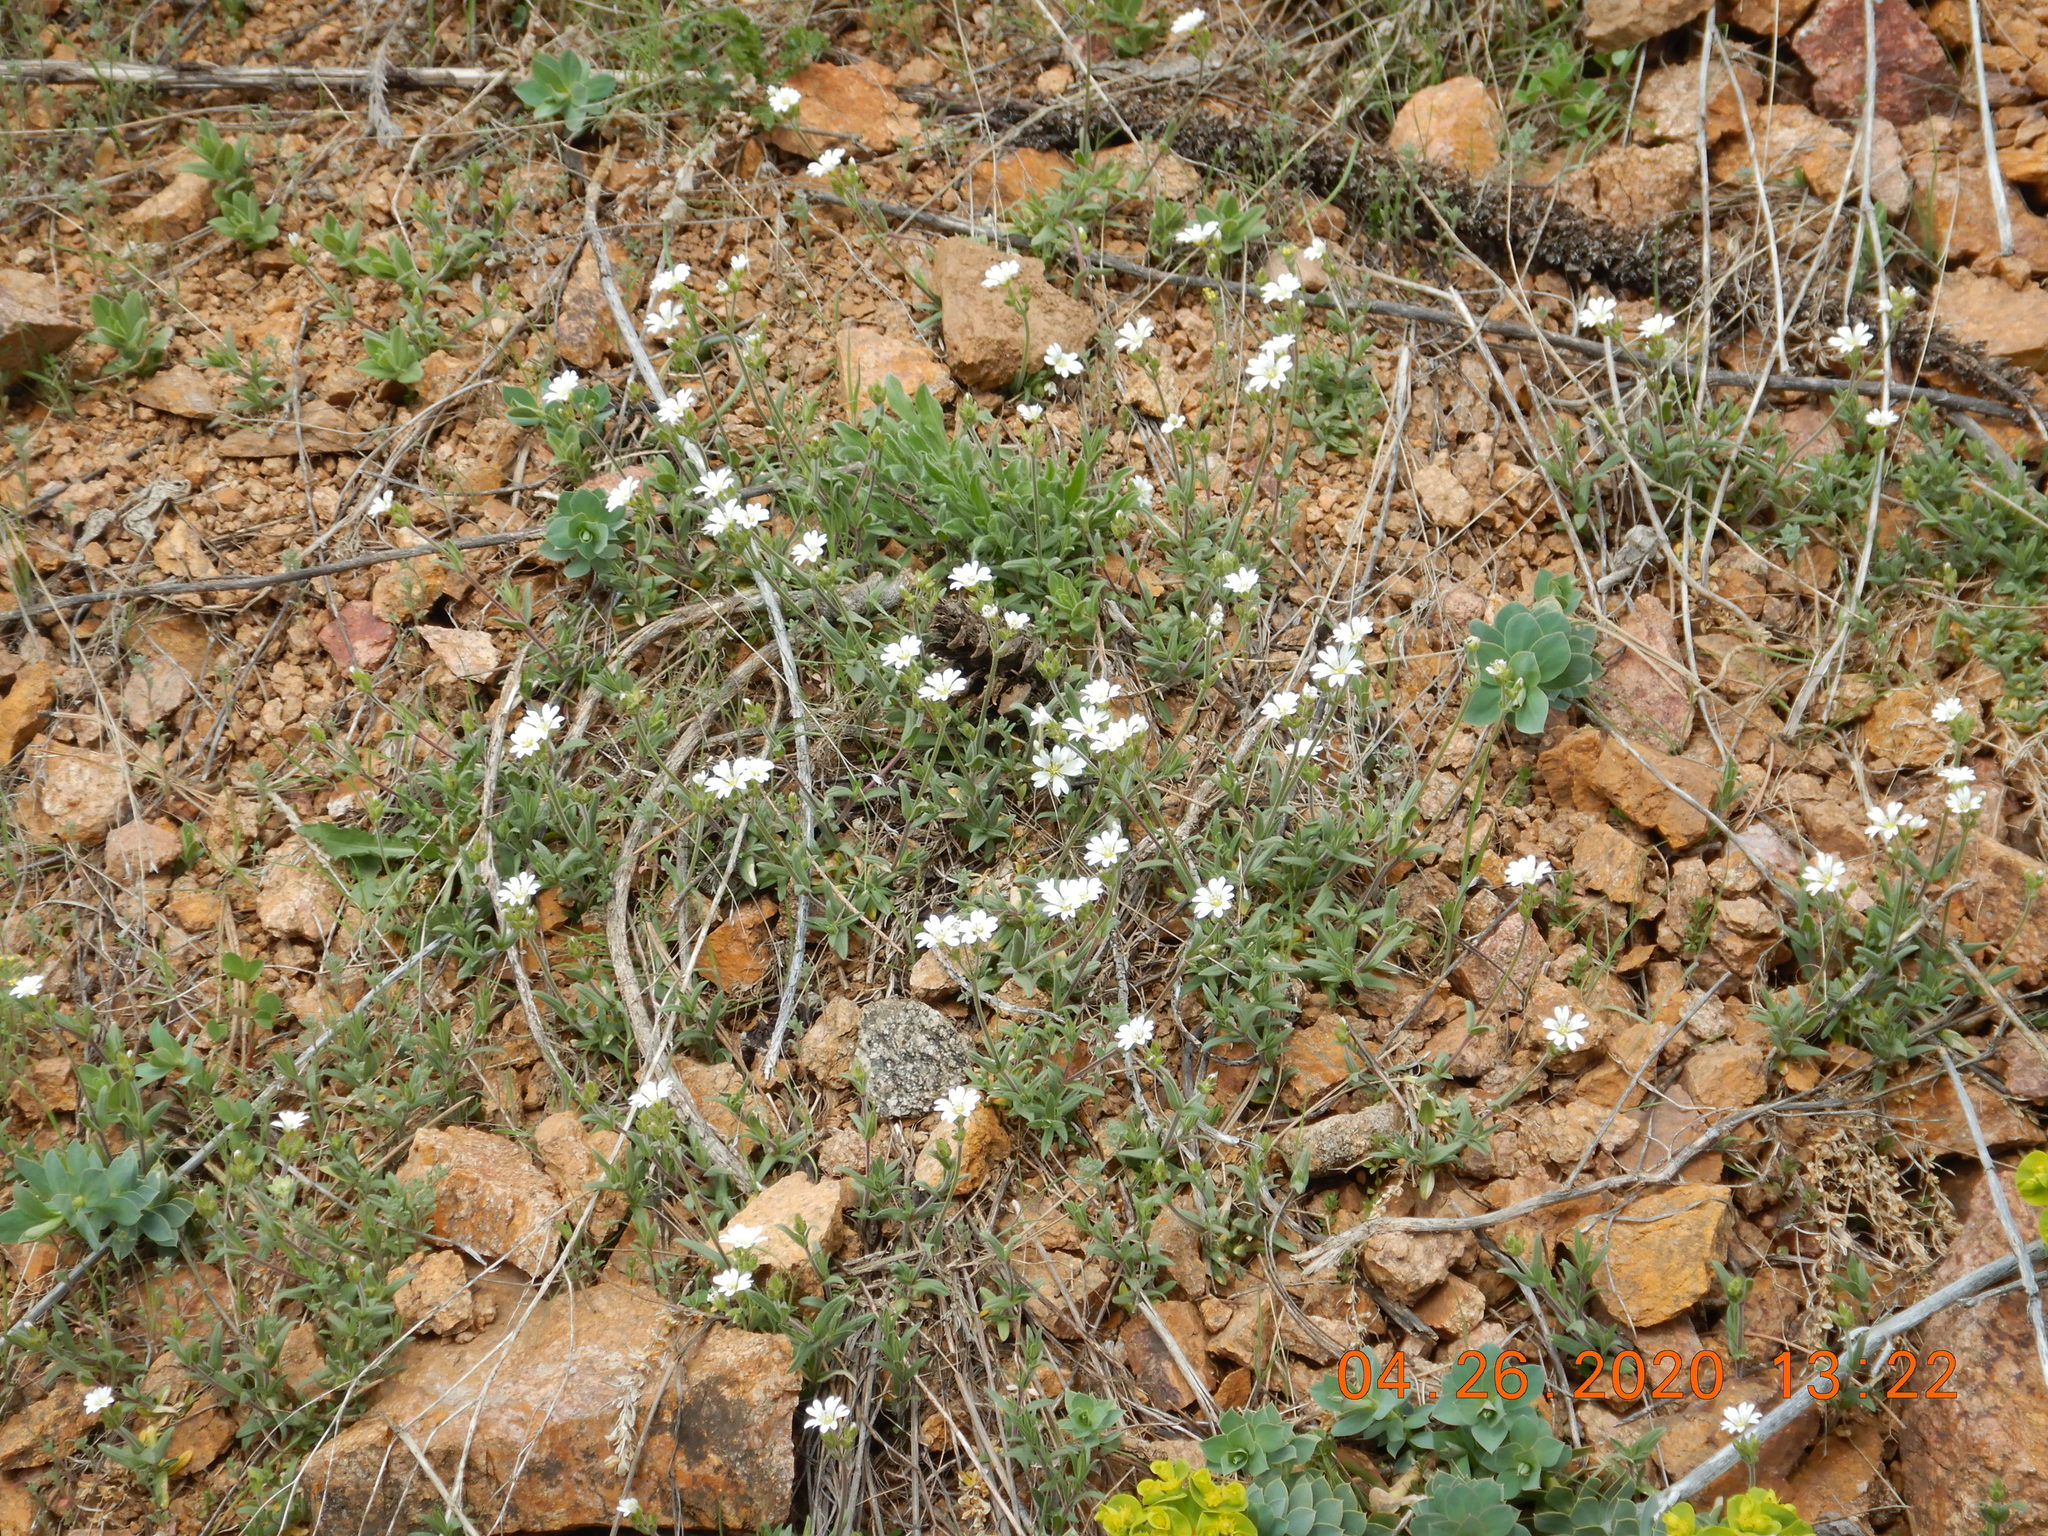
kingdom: Plantae
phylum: Tracheophyta
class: Magnoliopsida
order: Caryophyllales
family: Caryophyllaceae
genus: Cerastium
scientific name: Cerastium arvense
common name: Field mouse-ear
